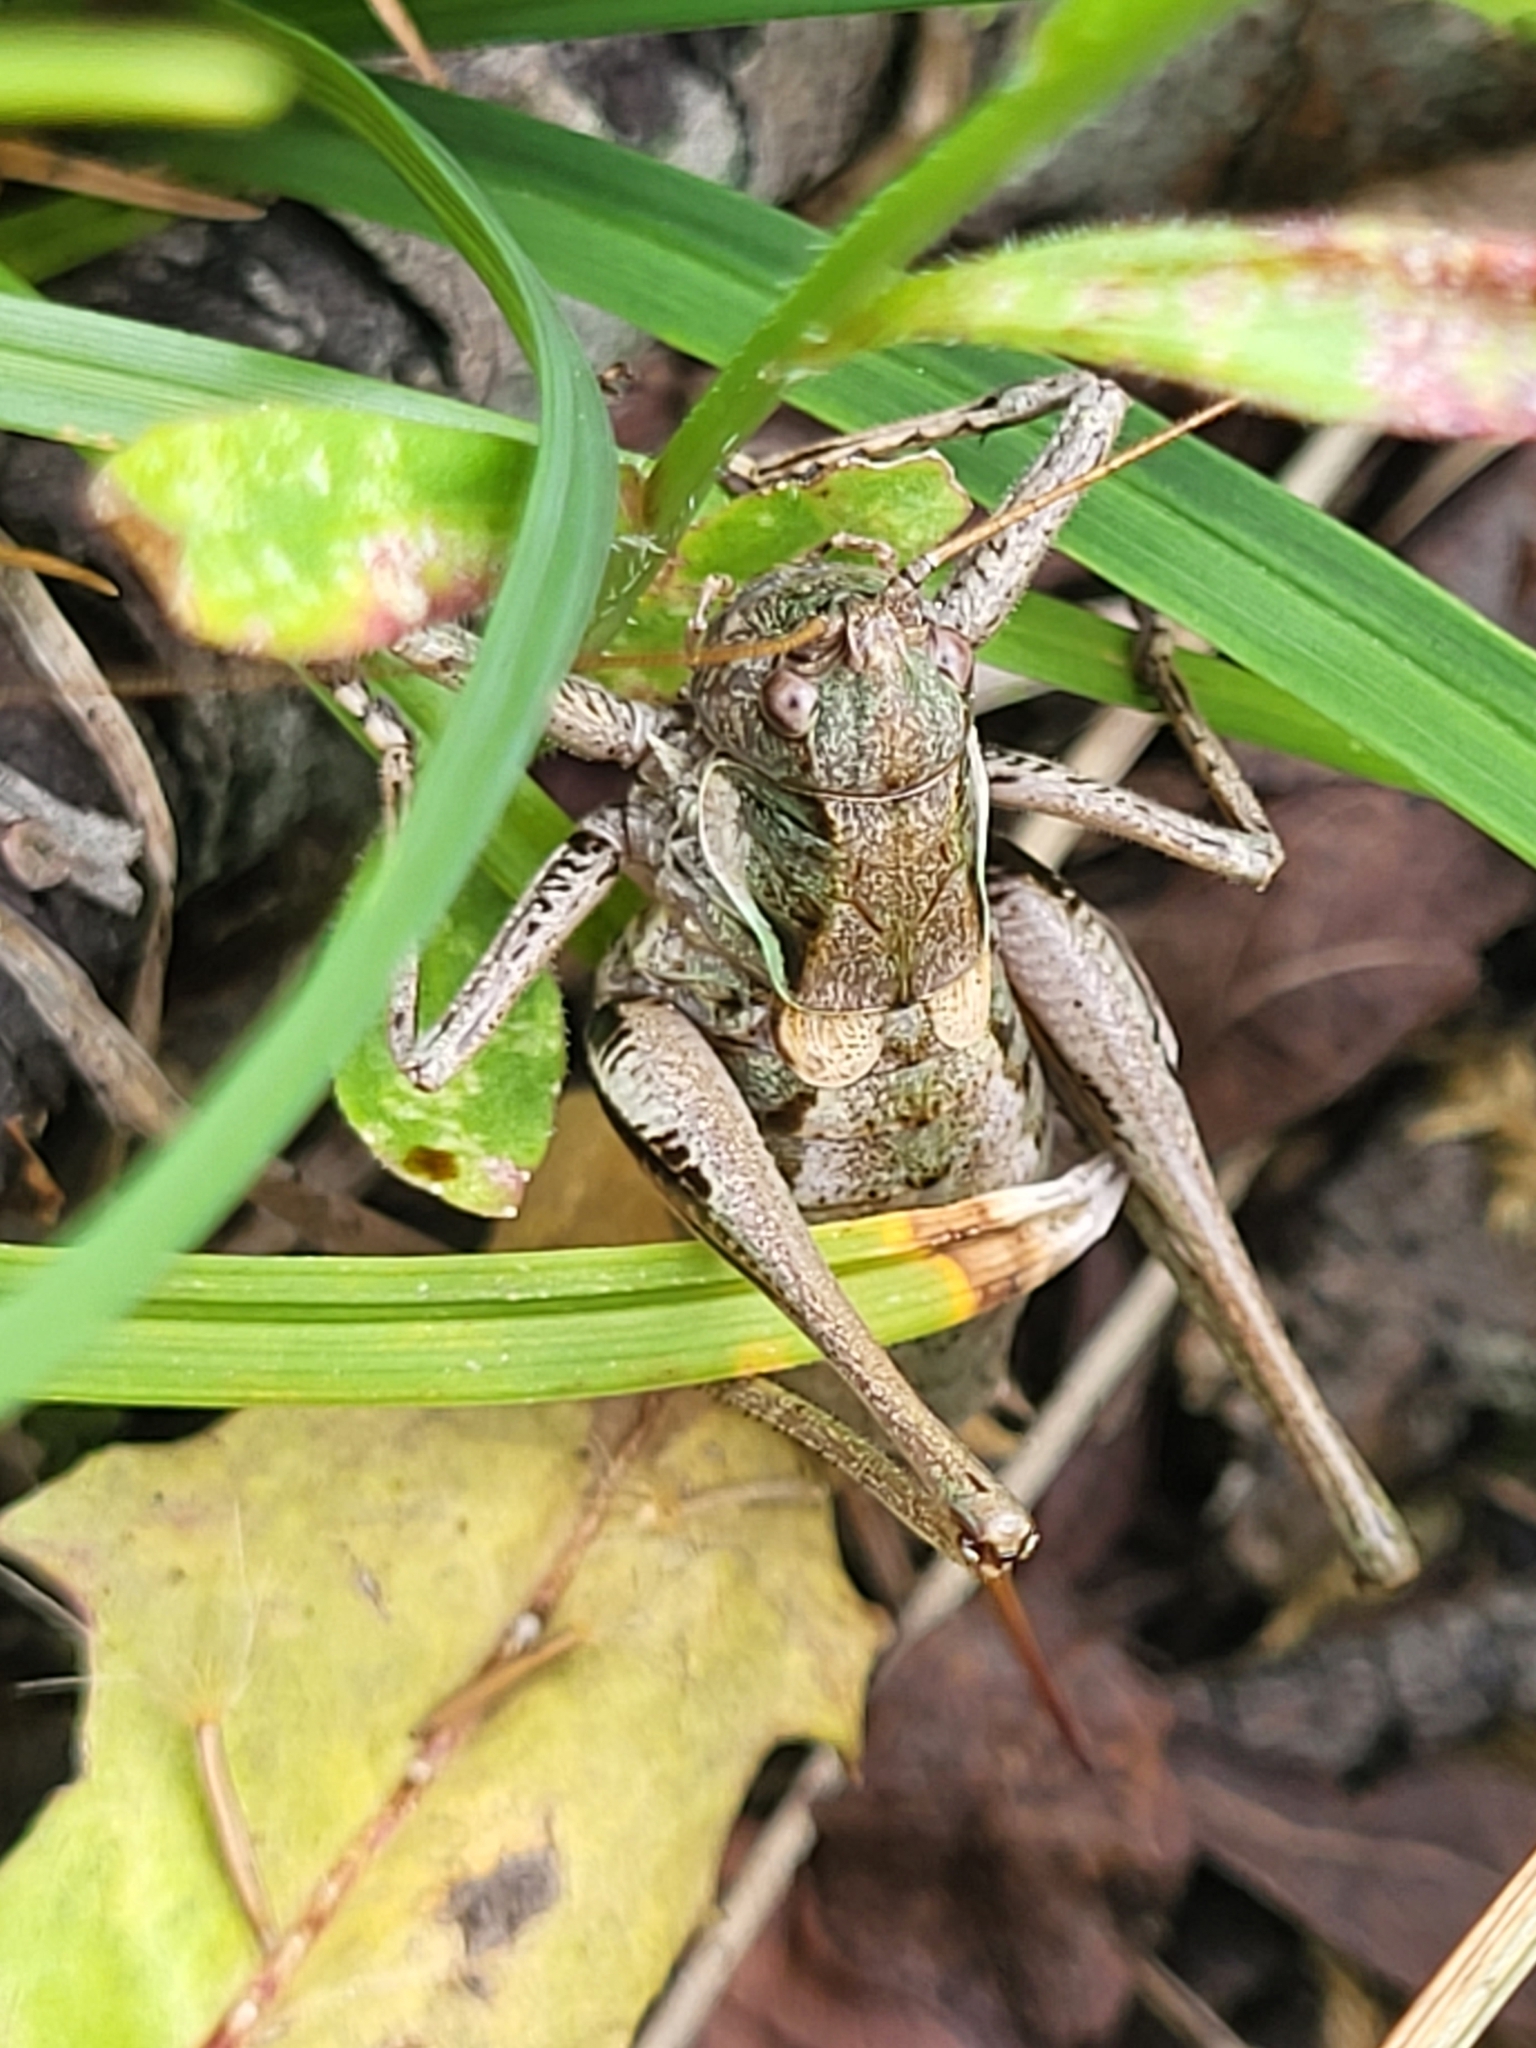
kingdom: Animalia
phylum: Arthropoda
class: Insecta
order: Orthoptera
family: Tettigoniidae
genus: Antaxius
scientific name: Antaxius difformis
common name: Eastern mountain bush-cricket
